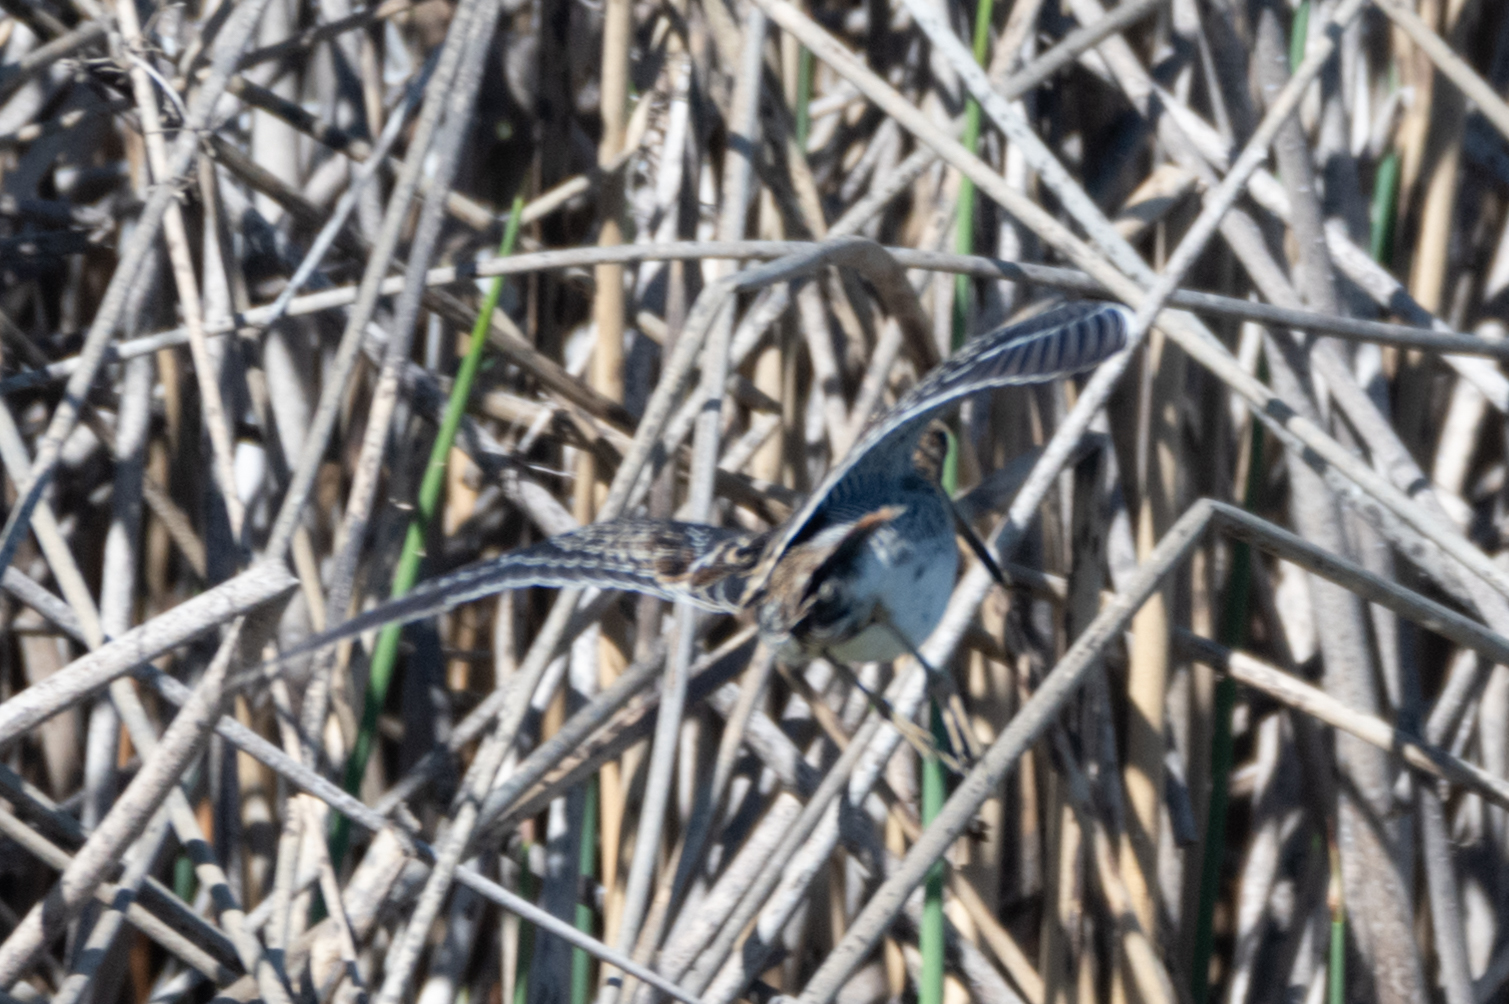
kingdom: Animalia
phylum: Chordata
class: Aves
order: Charadriiformes
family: Scolopacidae
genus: Gallinago
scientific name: Gallinago delicata
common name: Wilson's snipe
